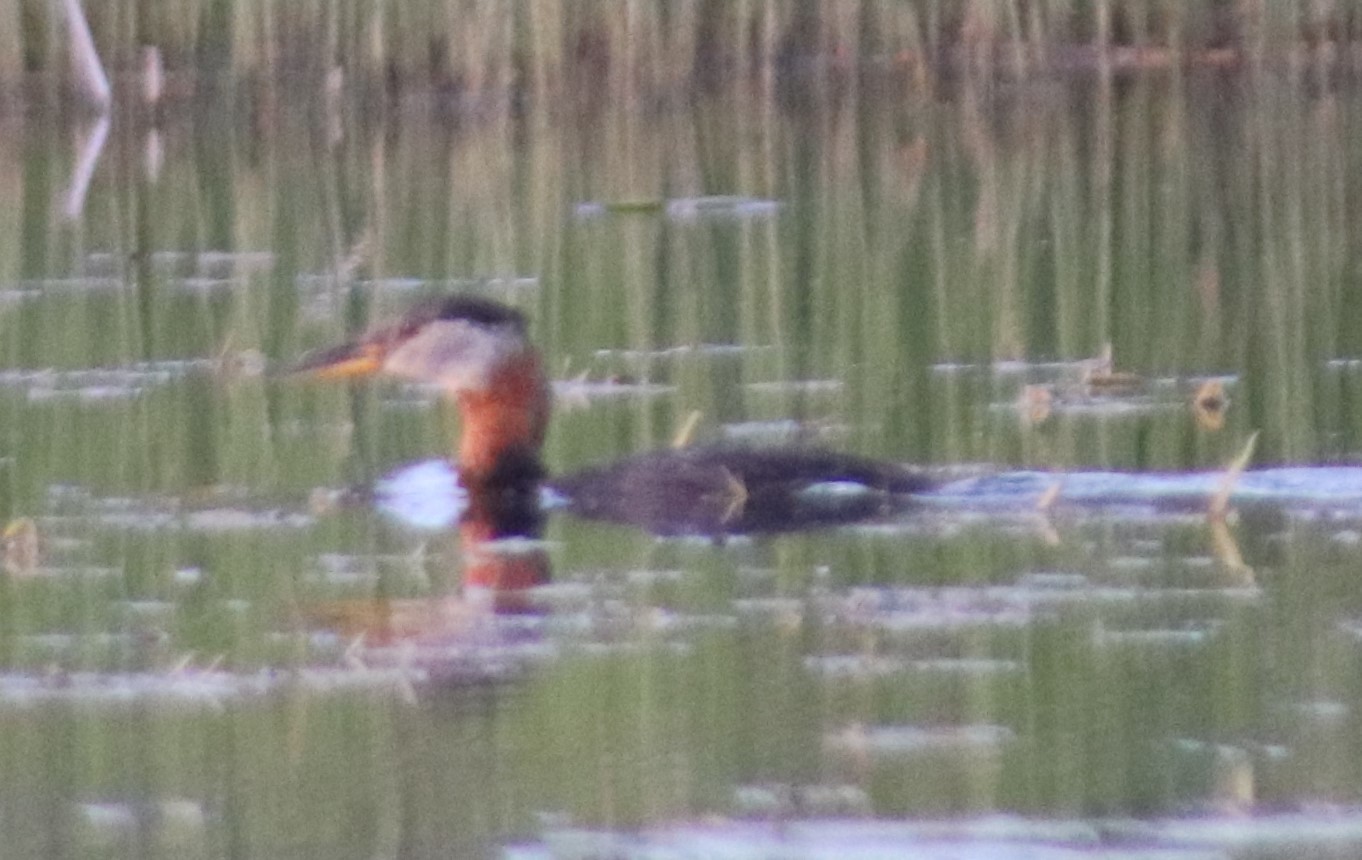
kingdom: Animalia
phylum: Chordata
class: Aves
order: Podicipediformes
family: Podicipedidae
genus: Podiceps
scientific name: Podiceps grisegena
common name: Red-necked grebe
